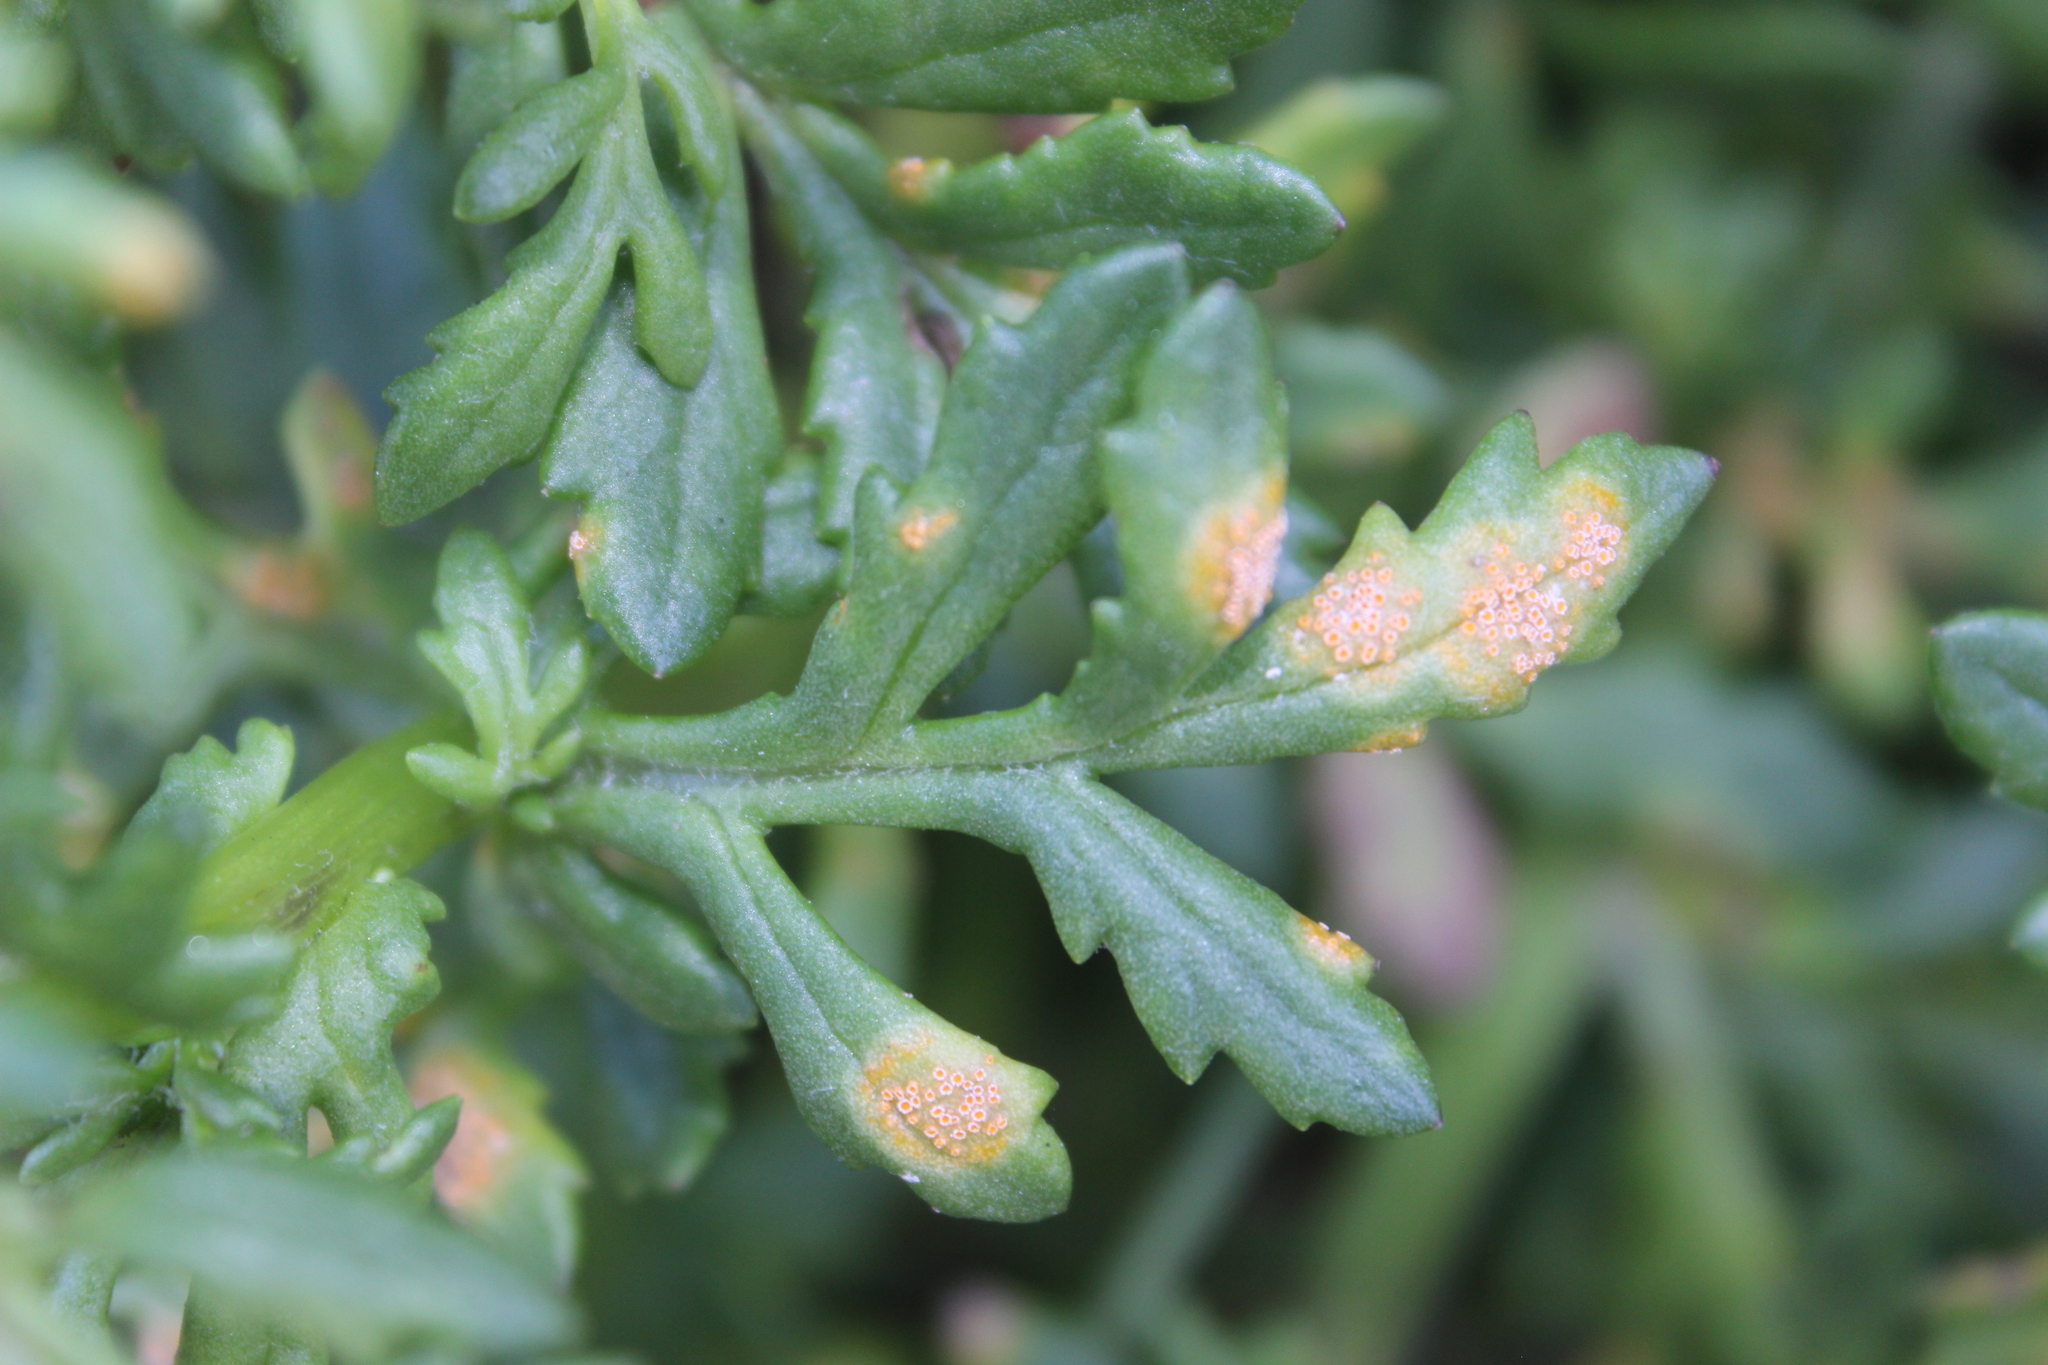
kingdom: Fungi
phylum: Basidiomycota
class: Pucciniomycetes
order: Pucciniales
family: Pucciniaceae
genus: Puccinia
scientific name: Puccinia lagenophorae
